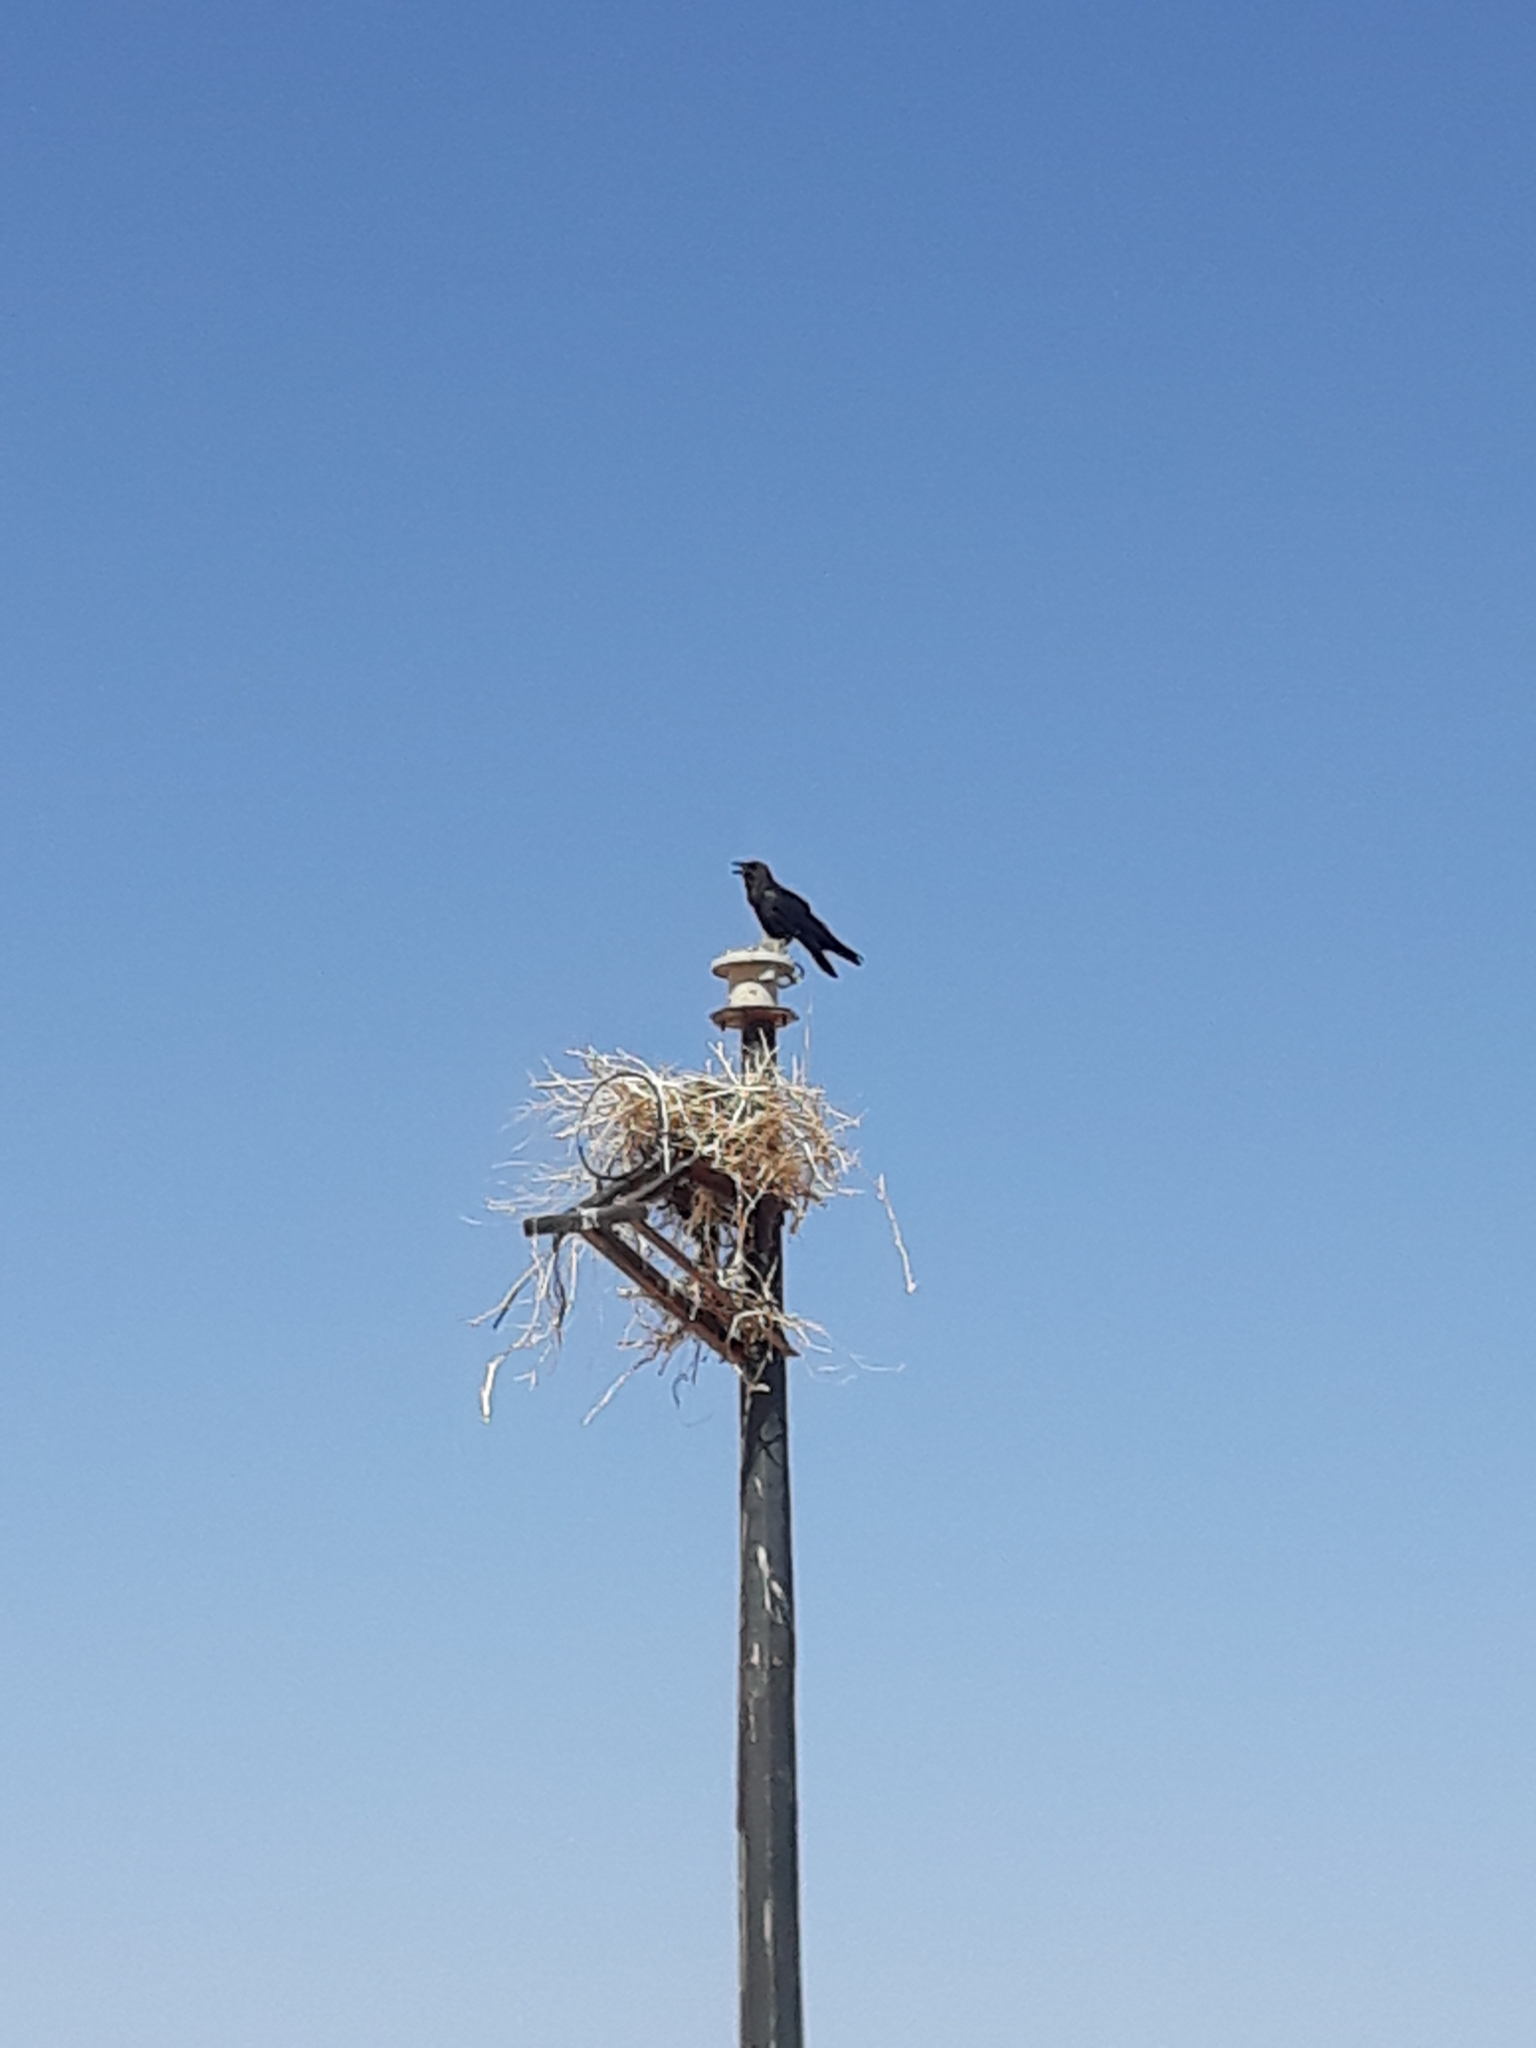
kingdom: Animalia
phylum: Chordata
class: Aves
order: Passeriformes
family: Corvidae
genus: Corvus
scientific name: Corvus ruficollis
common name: Brown-necked raven
